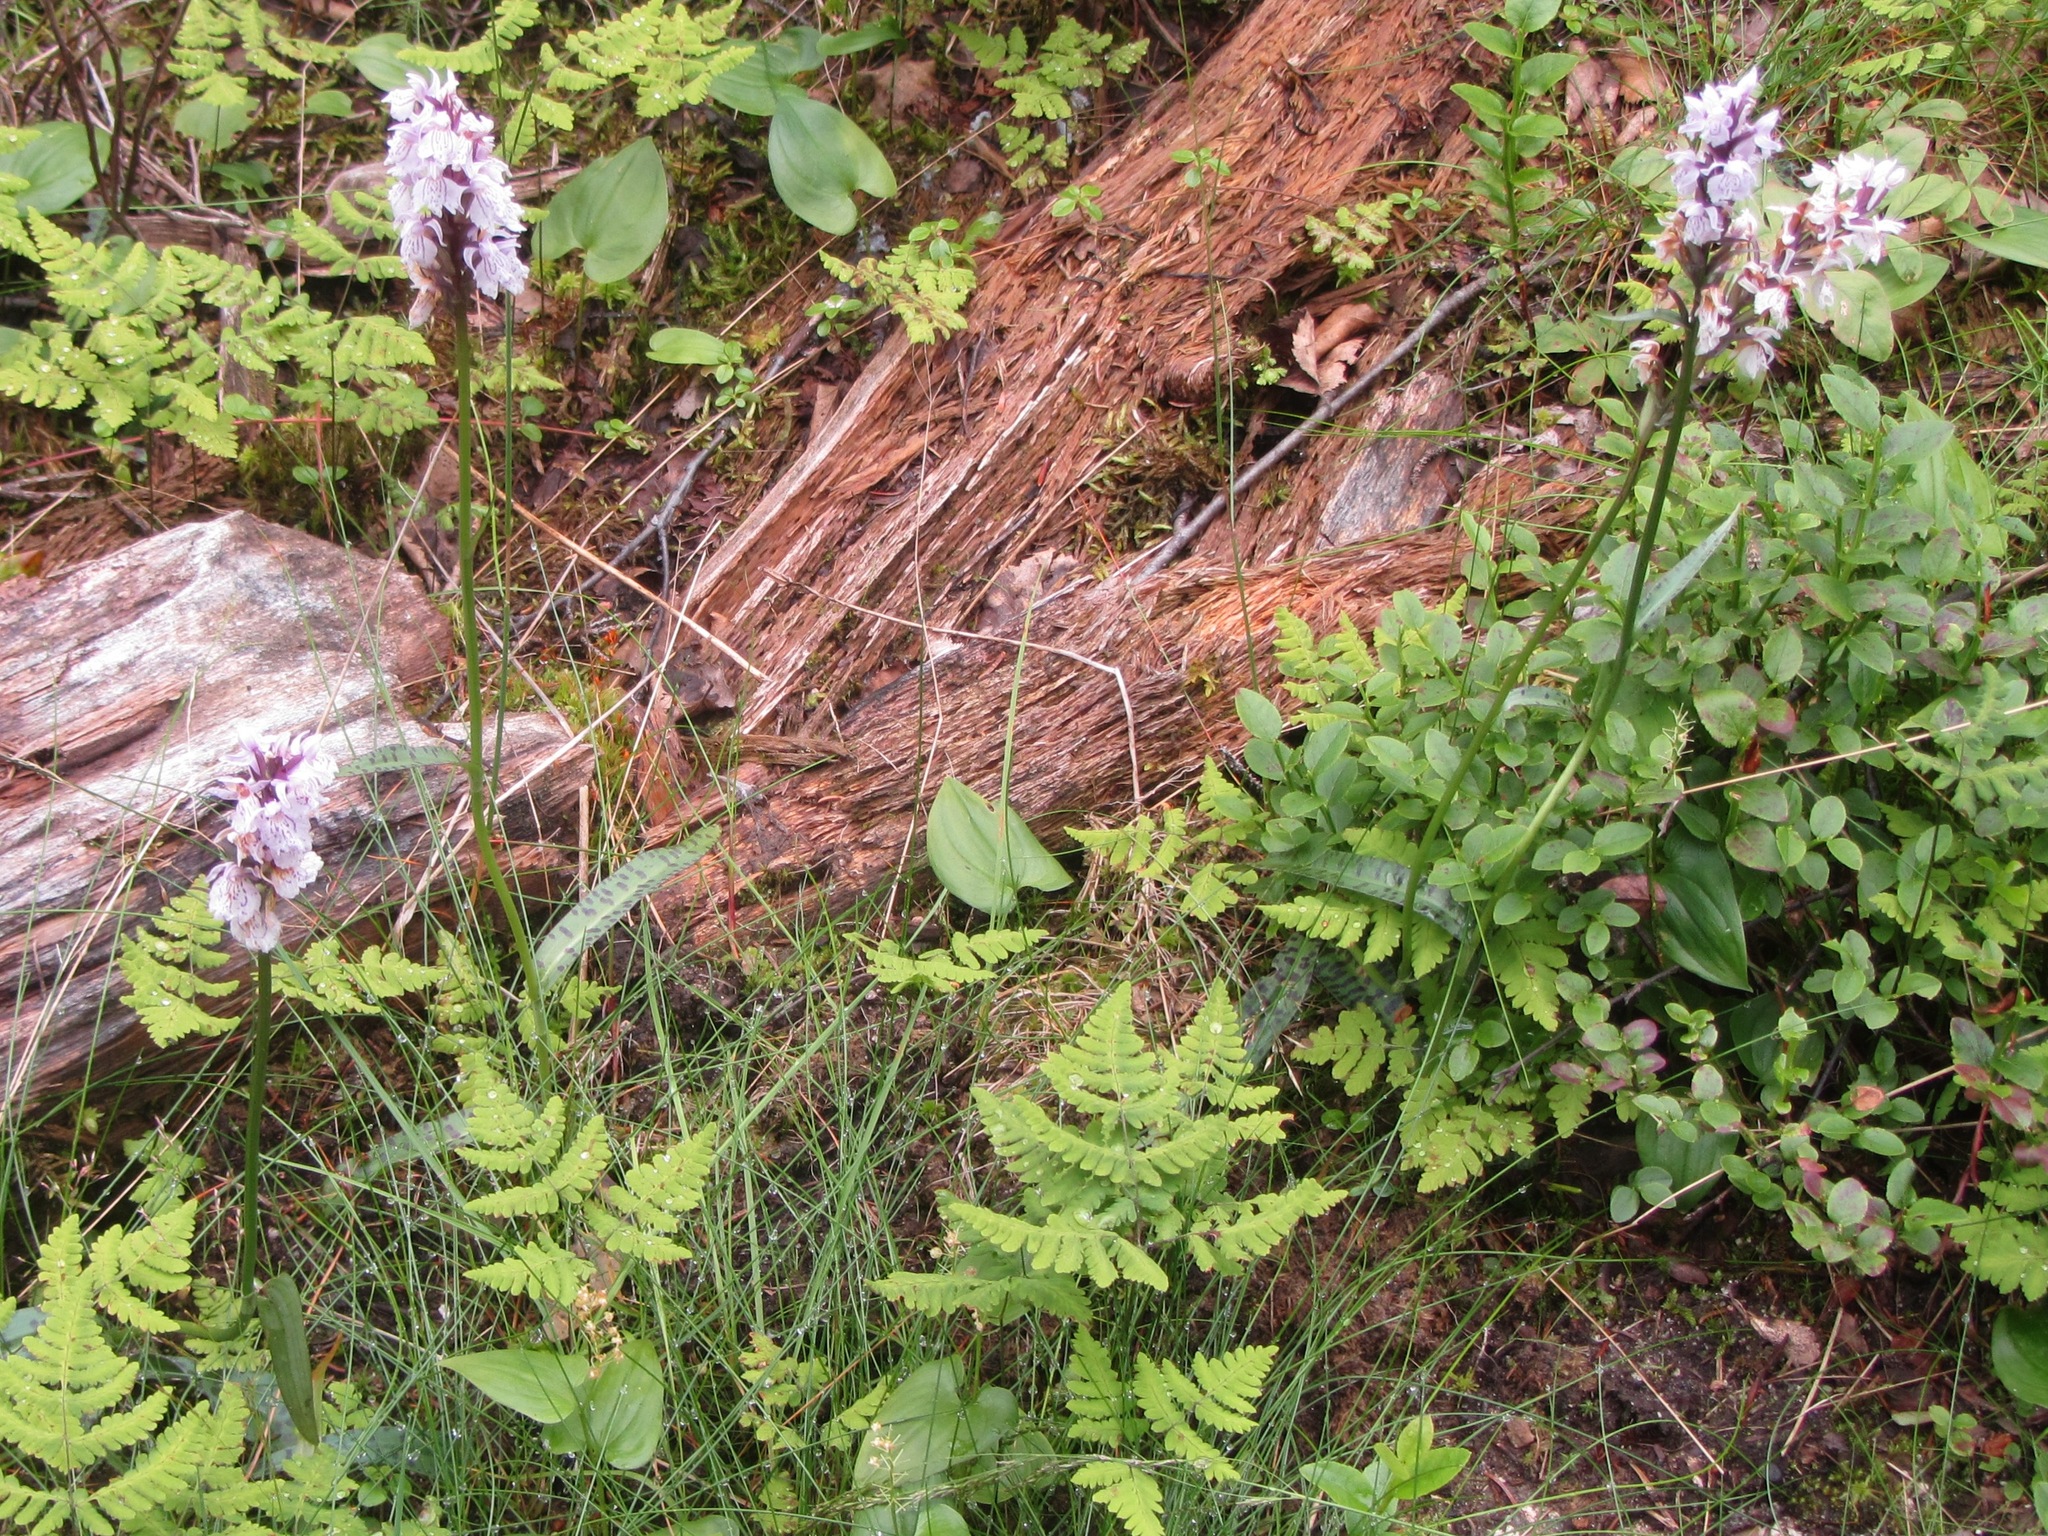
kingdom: Plantae
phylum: Tracheophyta
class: Liliopsida
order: Asparagales
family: Orchidaceae
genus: Dactylorhiza
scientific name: Dactylorhiza maculata
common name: Heath spotted-orchid
